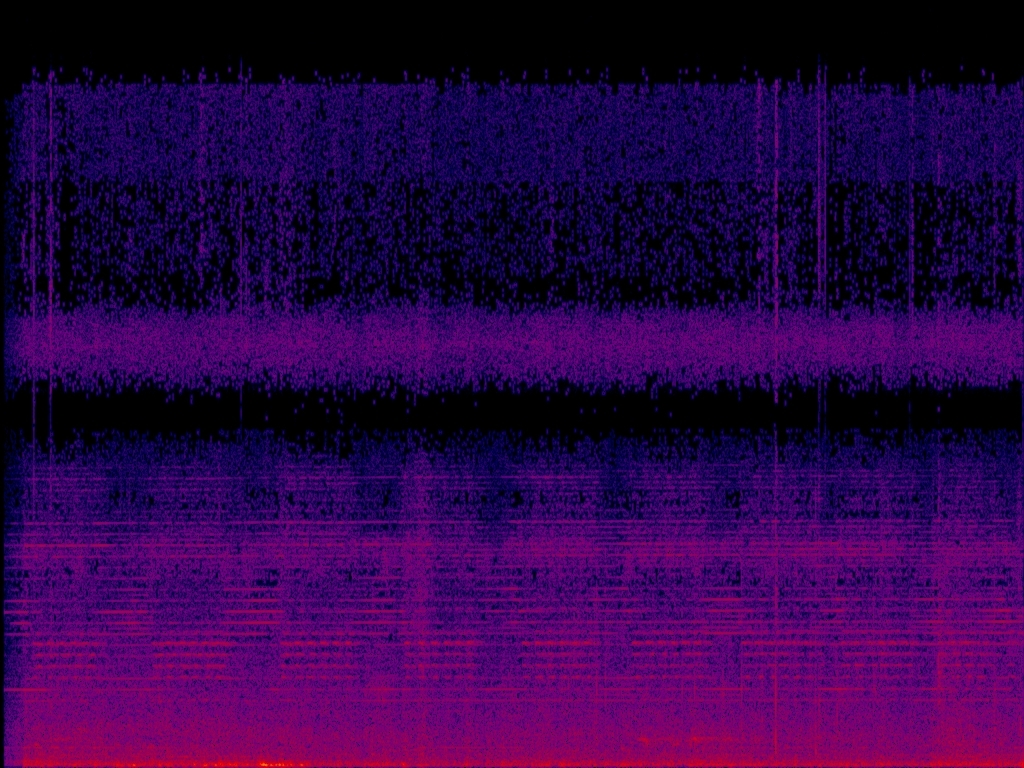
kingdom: Animalia
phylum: Arthropoda
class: Insecta
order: Hemiptera
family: Cicadidae
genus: Pomponia
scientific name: Pomponia yayeyamana
